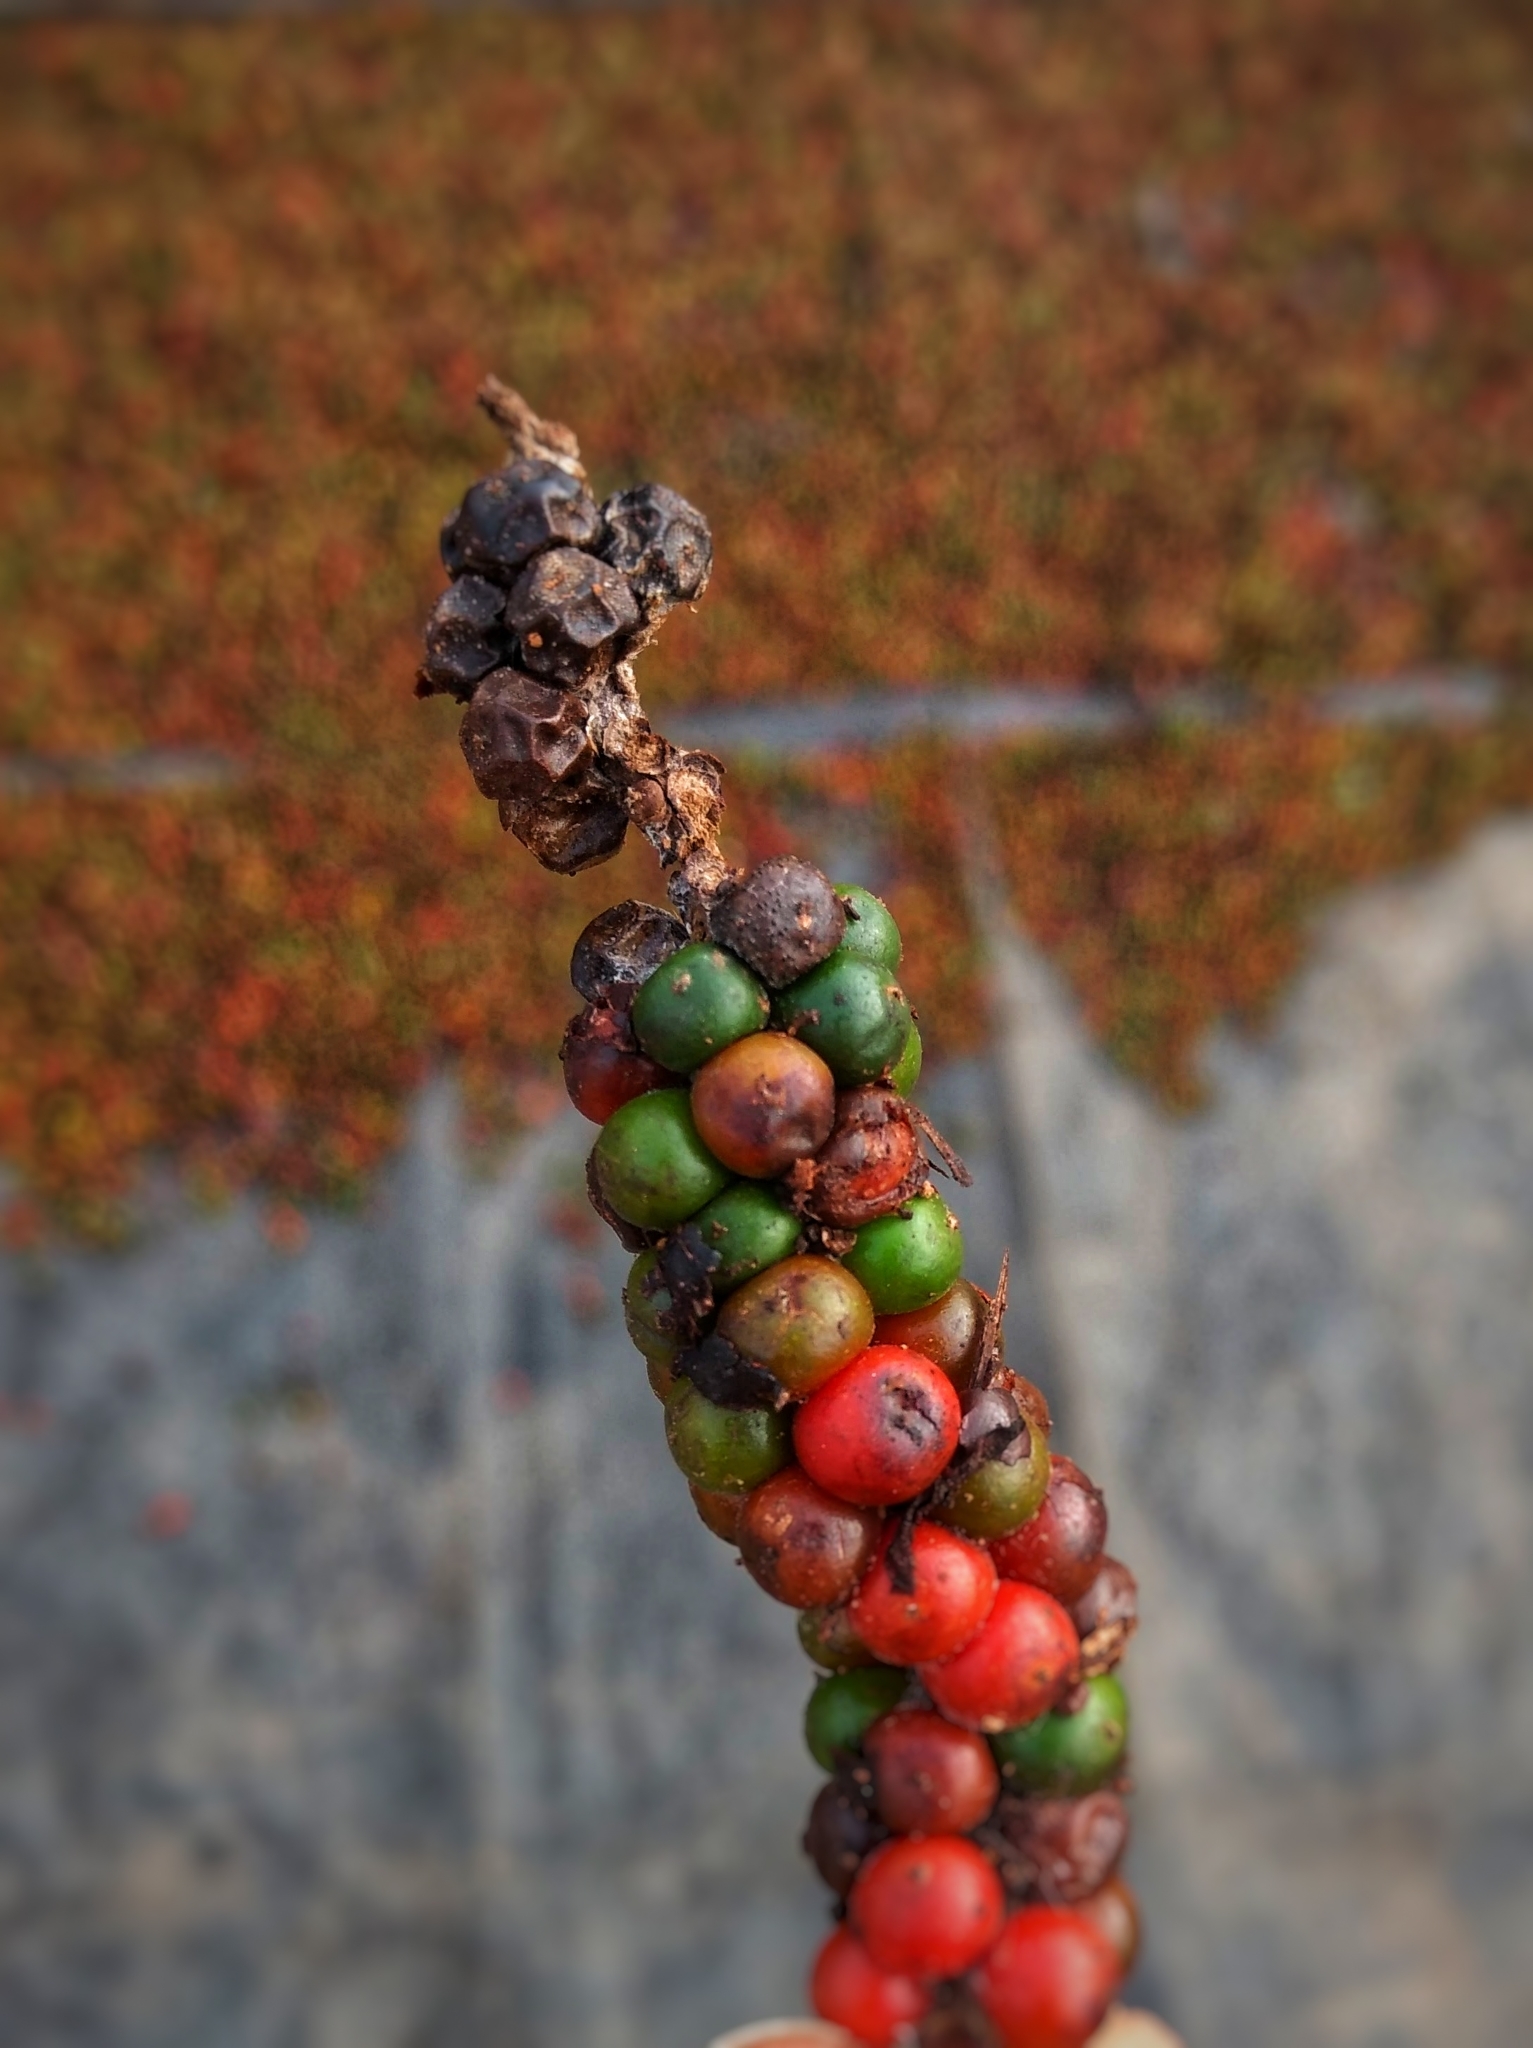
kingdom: Plantae
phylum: Tracheophyta
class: Magnoliopsida
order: Gentianales
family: Rubiaceae
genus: Coffea
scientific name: Coffea arabica
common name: Coffee
